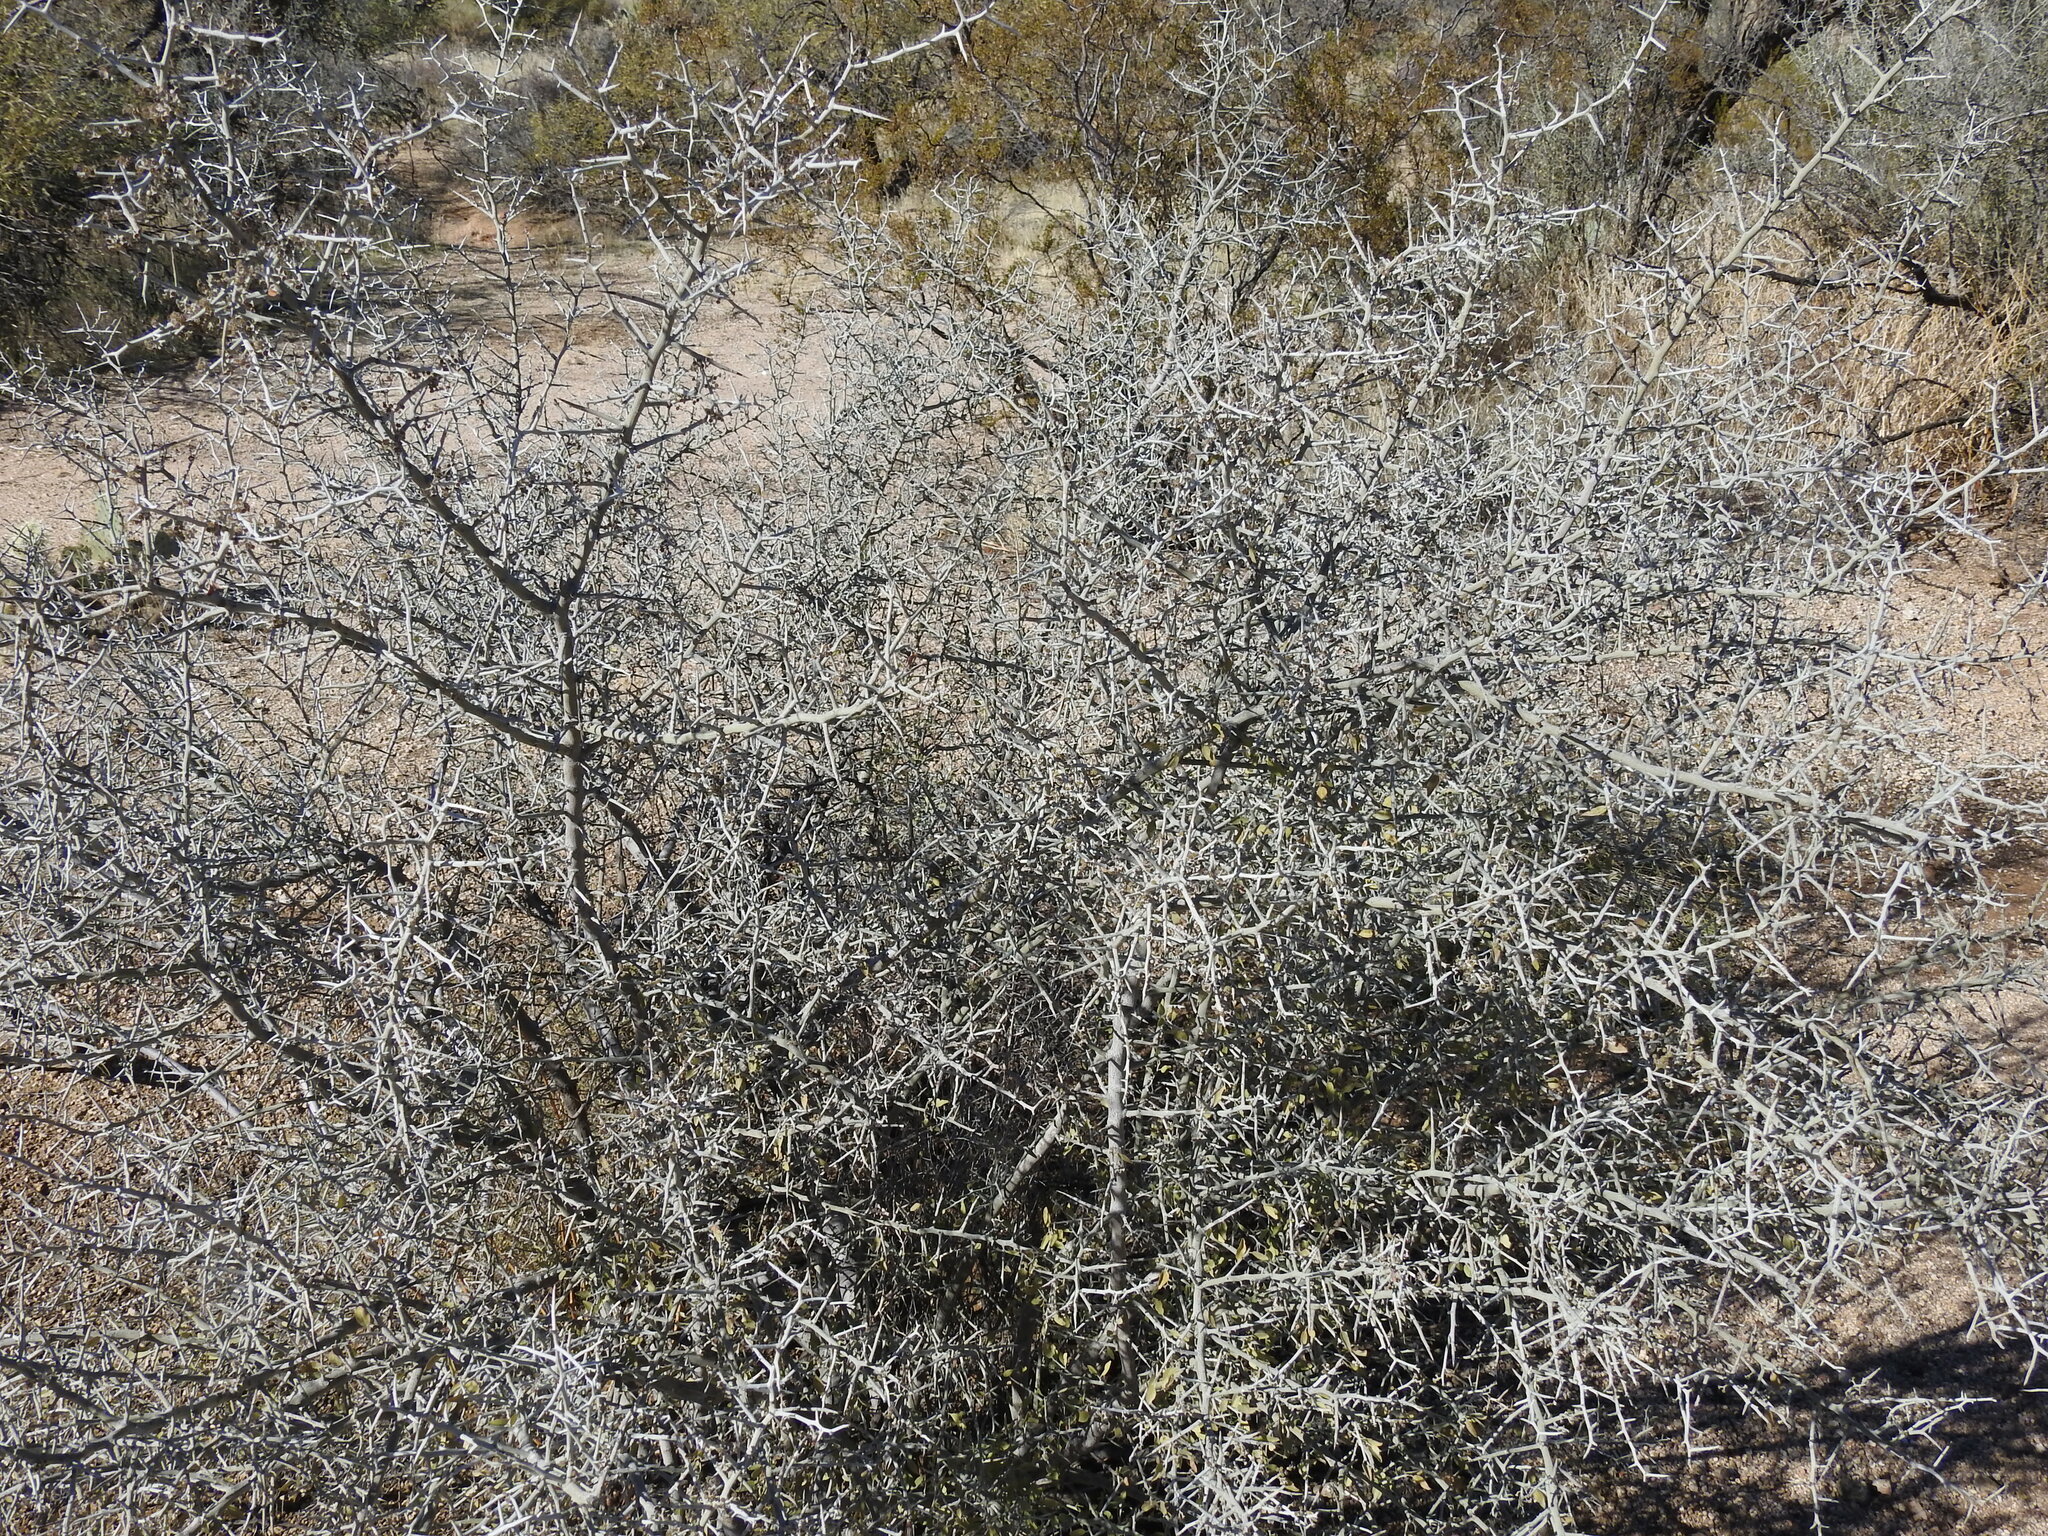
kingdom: Plantae
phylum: Tracheophyta
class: Magnoliopsida
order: Rosales
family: Rhamnaceae
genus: Sarcomphalus
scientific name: Sarcomphalus obtusifolius
